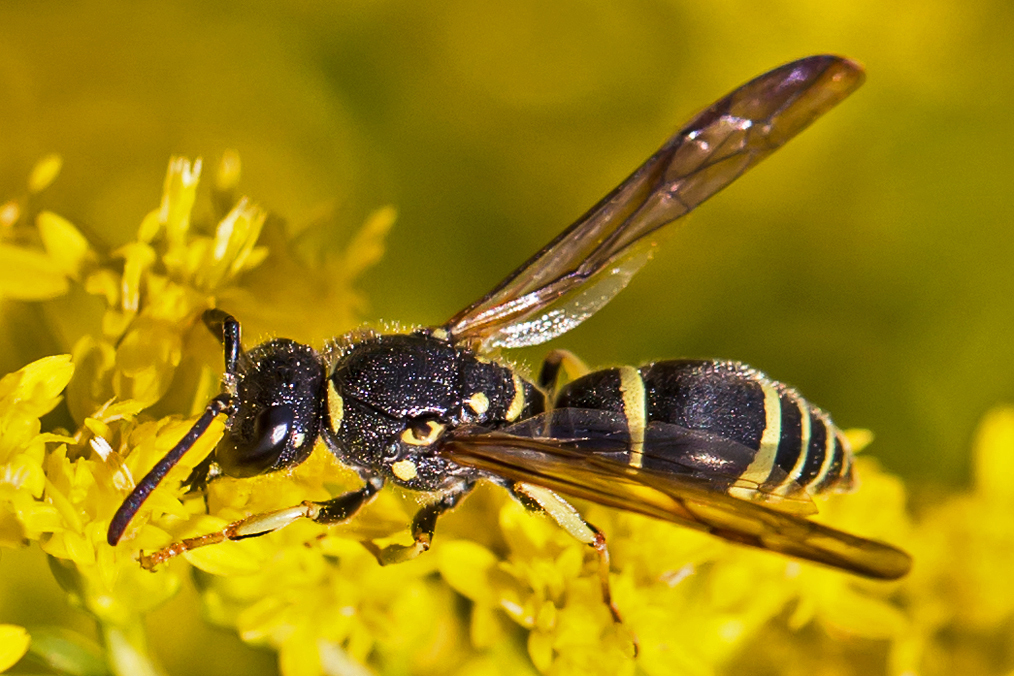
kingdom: Animalia
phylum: Arthropoda
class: Insecta
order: Hymenoptera
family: Vespidae
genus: Ancistrocerus
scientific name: Ancistrocerus adiabatus
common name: Bramble mason wasp
